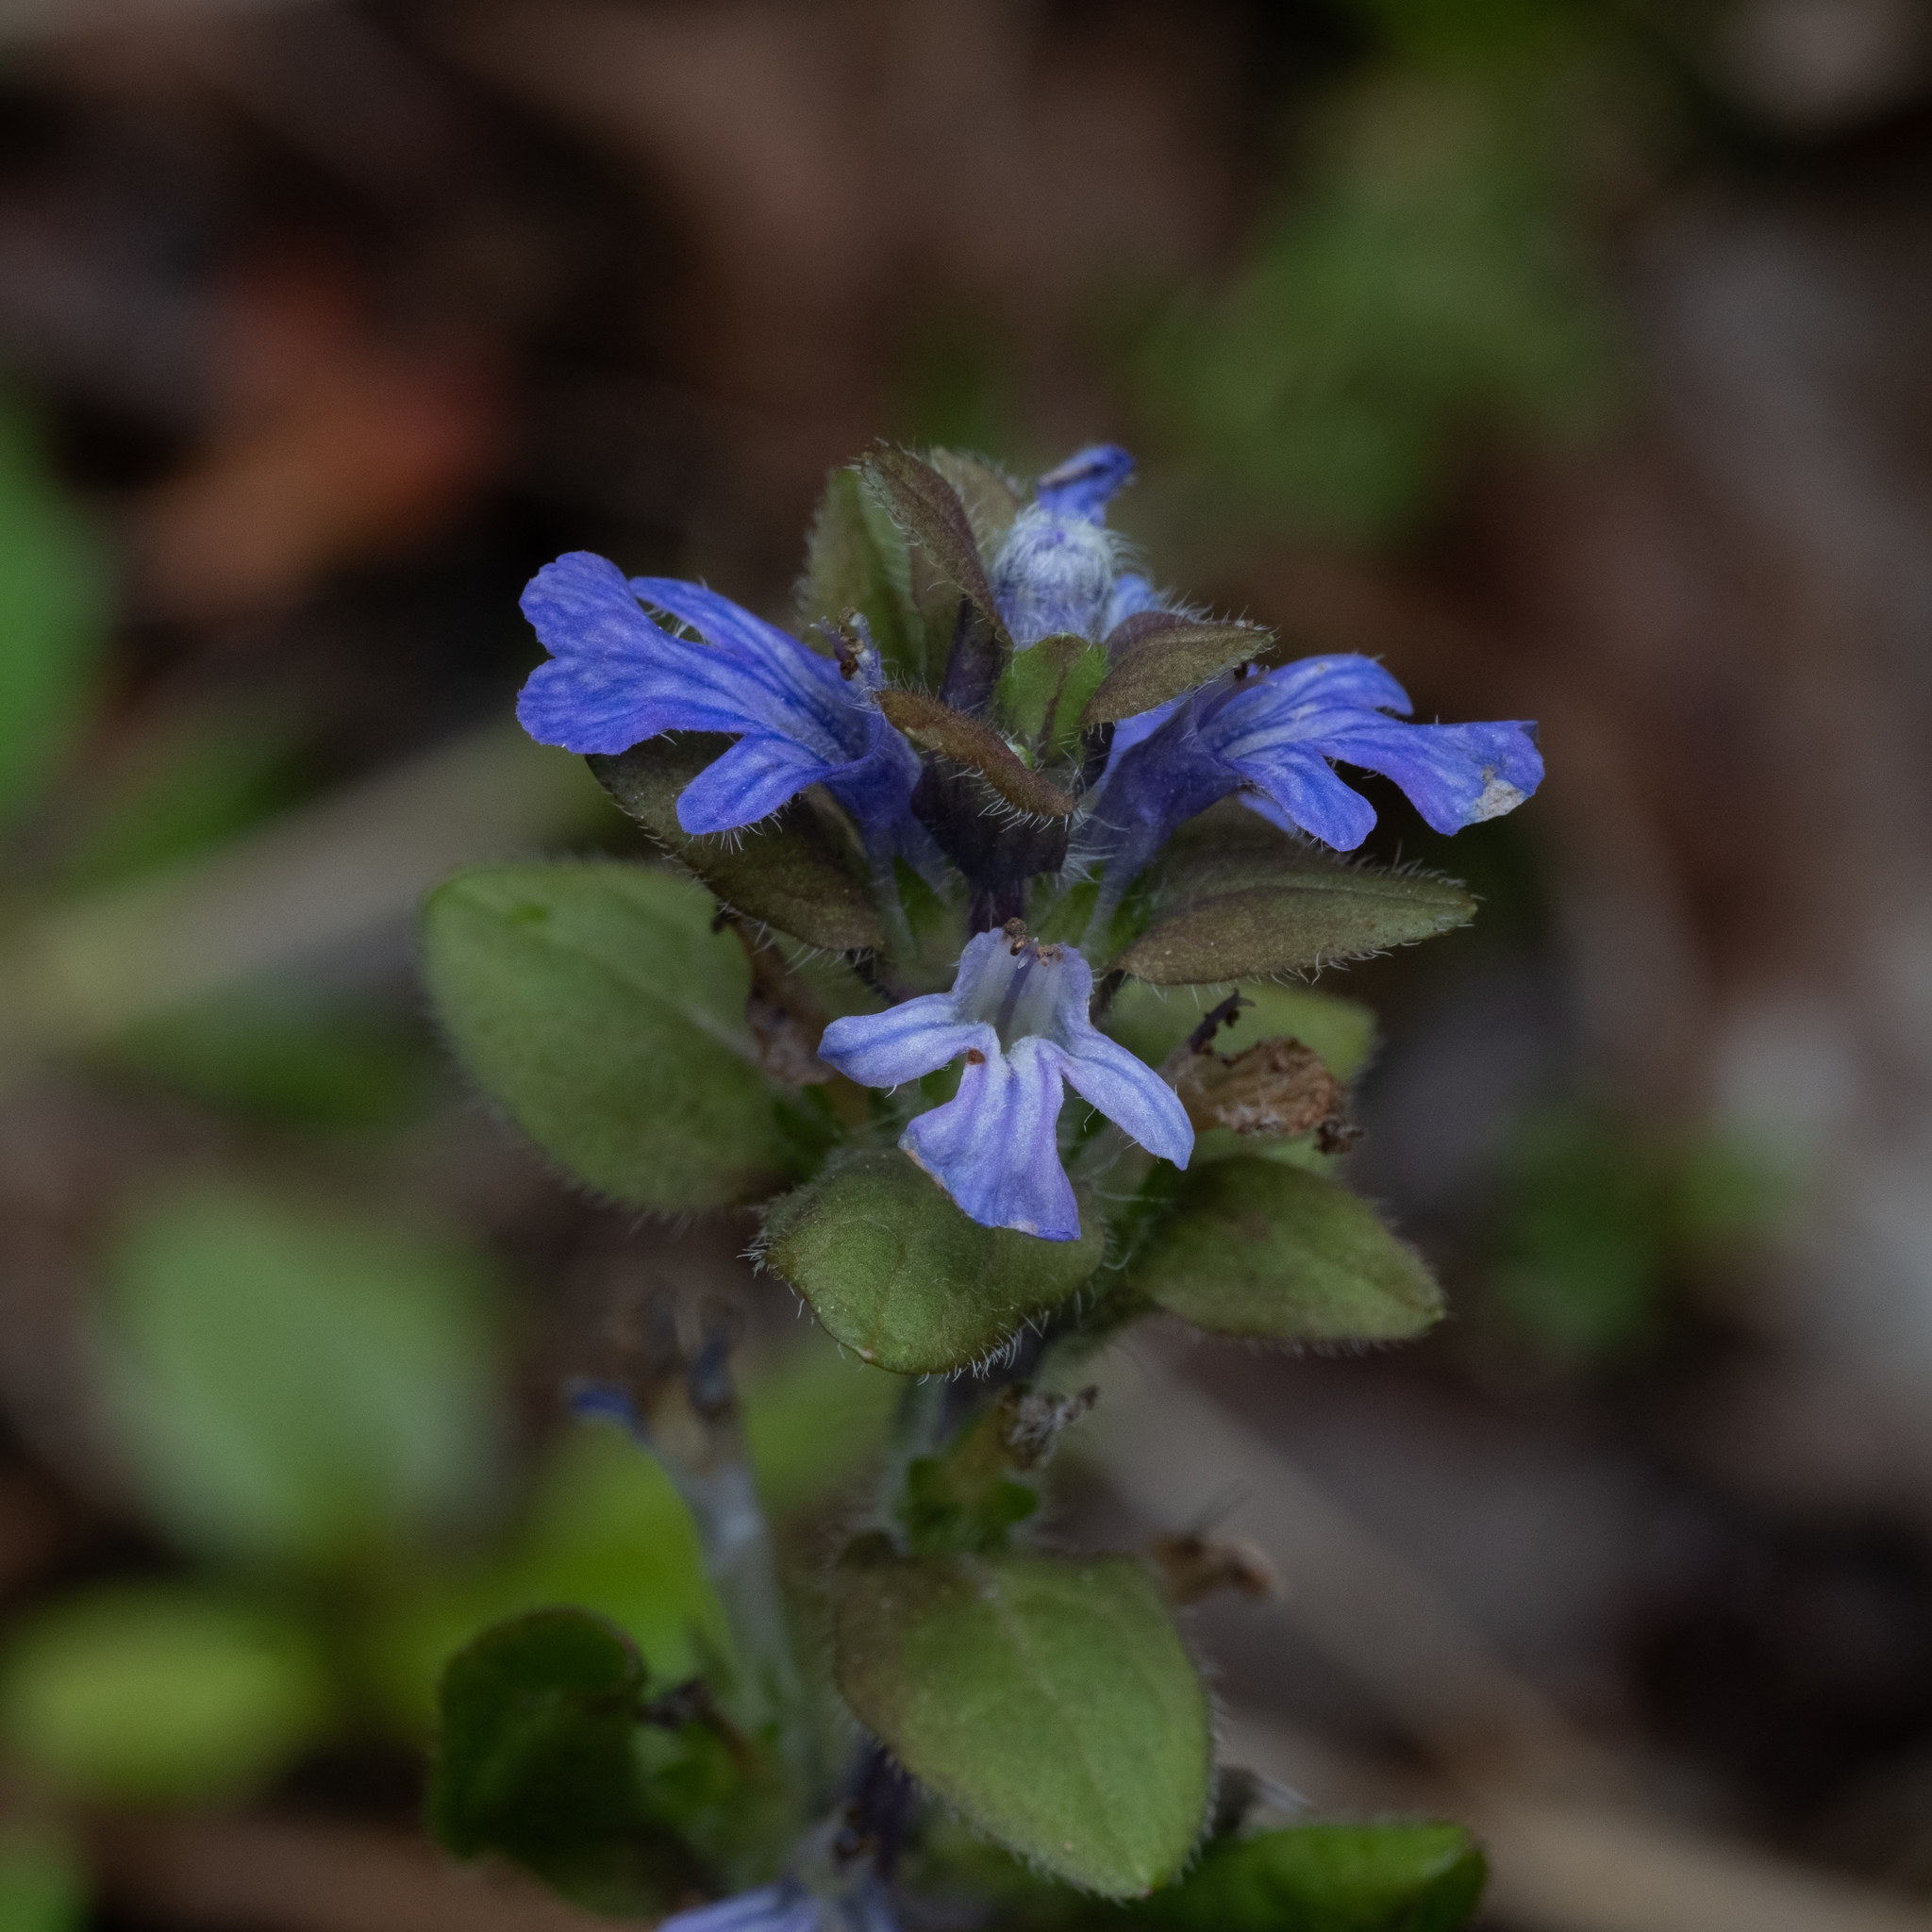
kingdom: Plantae
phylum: Tracheophyta
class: Magnoliopsida
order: Lamiales
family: Lamiaceae
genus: Ajuga
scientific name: Ajuga reptans
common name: Bugle
